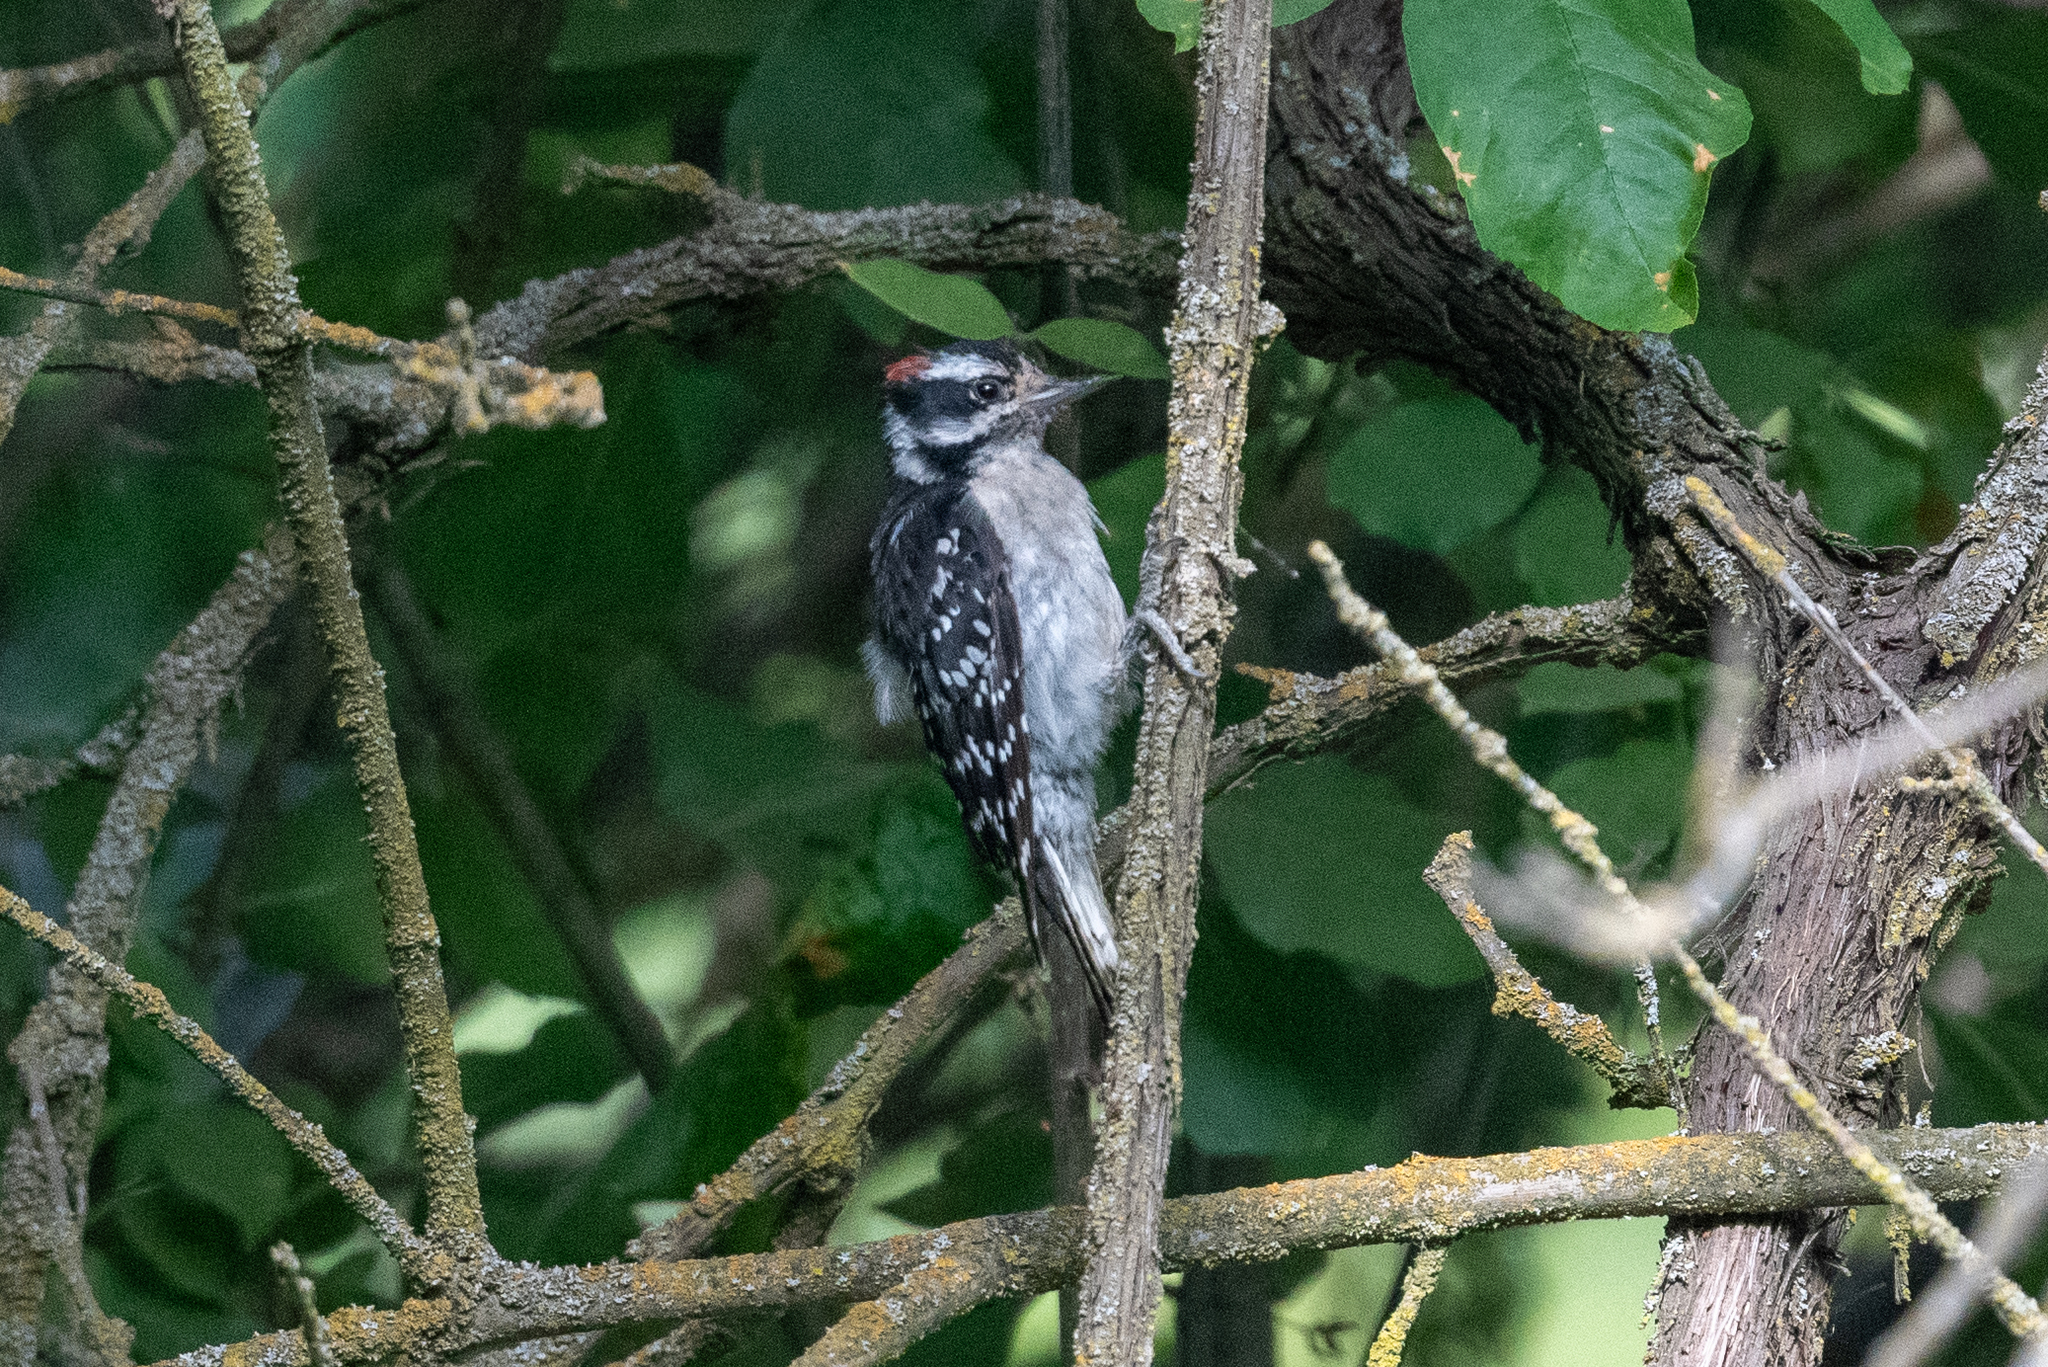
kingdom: Animalia
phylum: Chordata
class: Aves
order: Piciformes
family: Picidae
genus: Dryobates
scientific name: Dryobates pubescens
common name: Downy woodpecker
